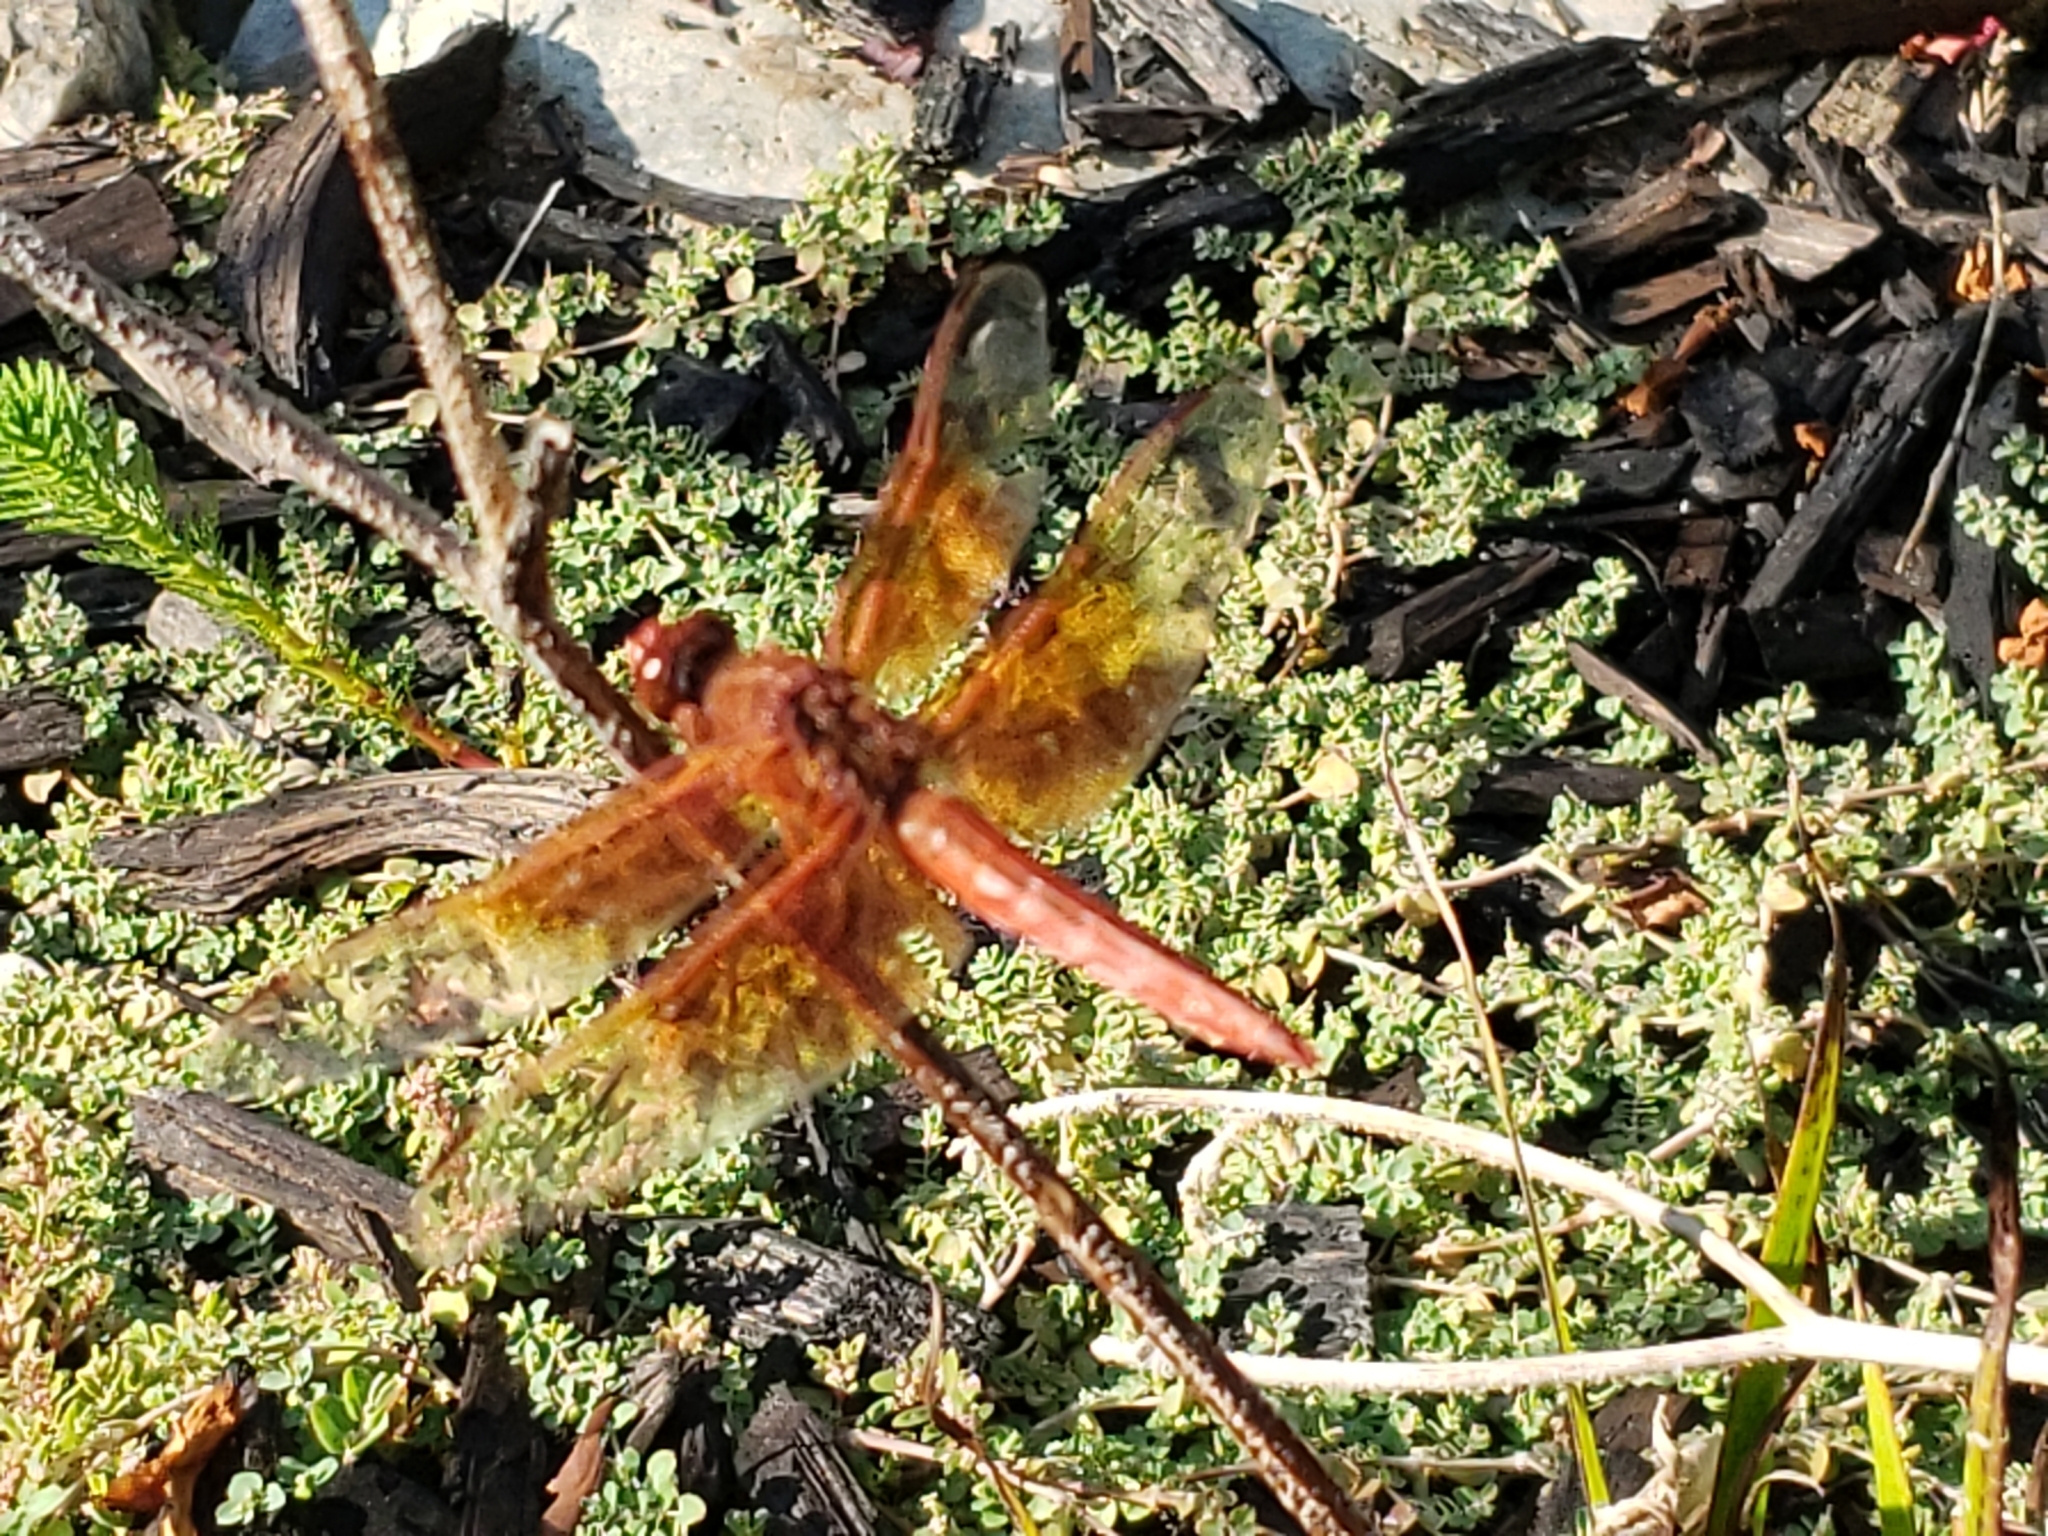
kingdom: Animalia
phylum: Arthropoda
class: Insecta
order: Odonata
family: Libellulidae
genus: Libellula
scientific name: Libellula saturata
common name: Flame skimmer
